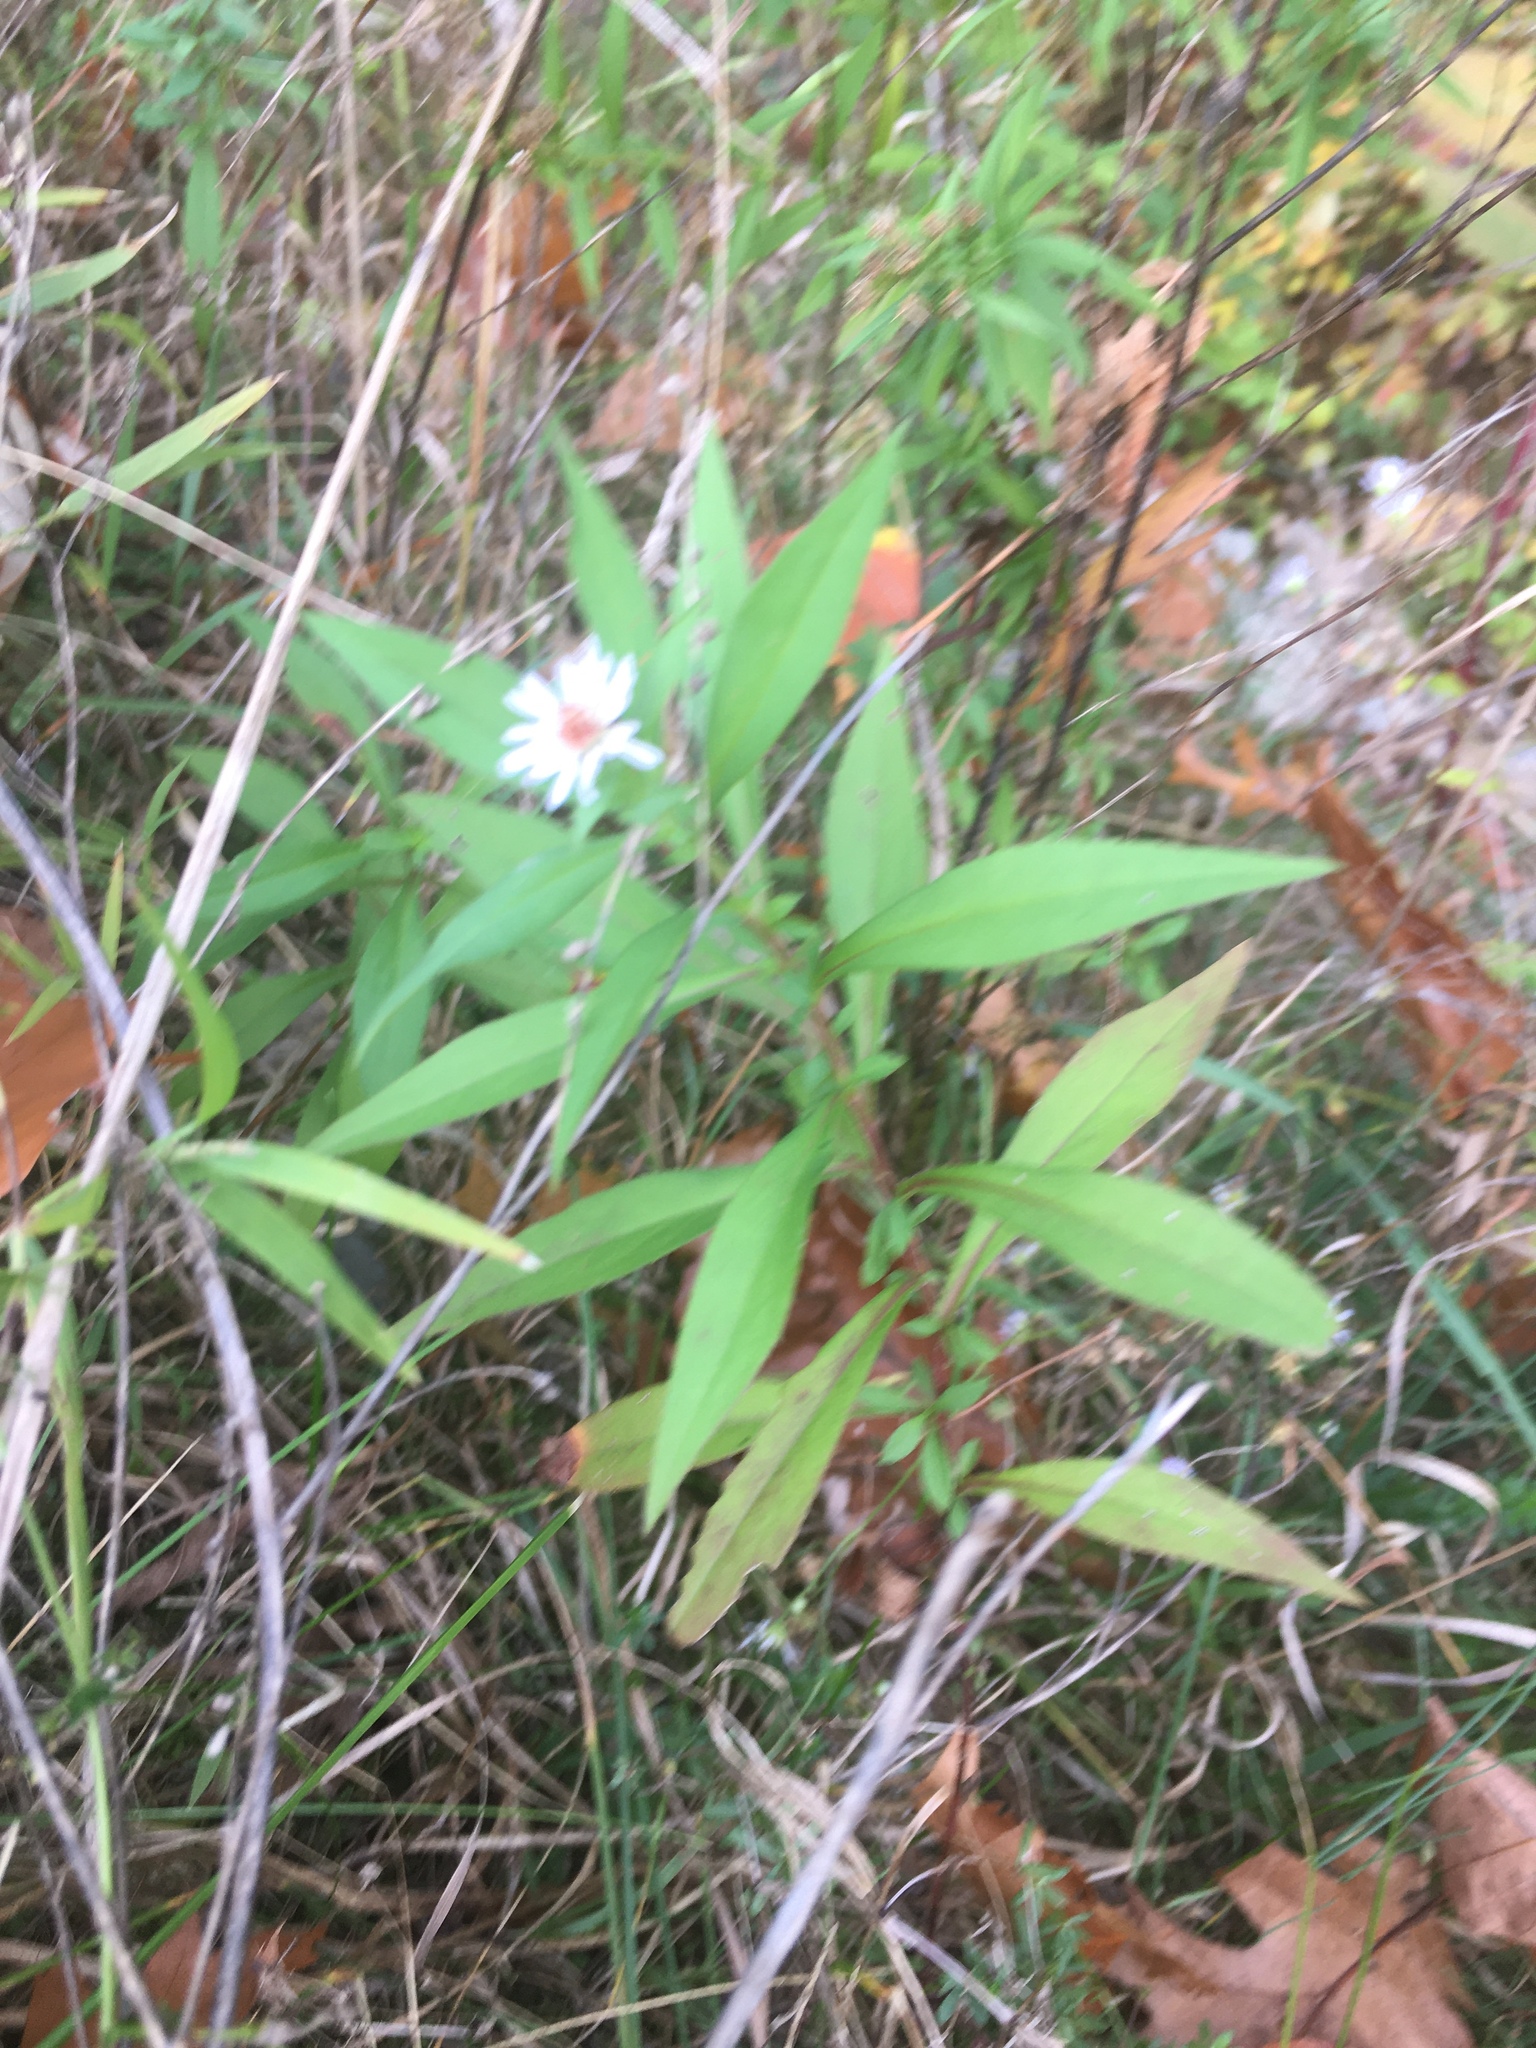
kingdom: Plantae
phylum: Tracheophyta
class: Magnoliopsida
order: Asterales
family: Asteraceae
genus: Symphyotrichum
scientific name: Symphyotrichum lanceolatum
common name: Panicled aster
